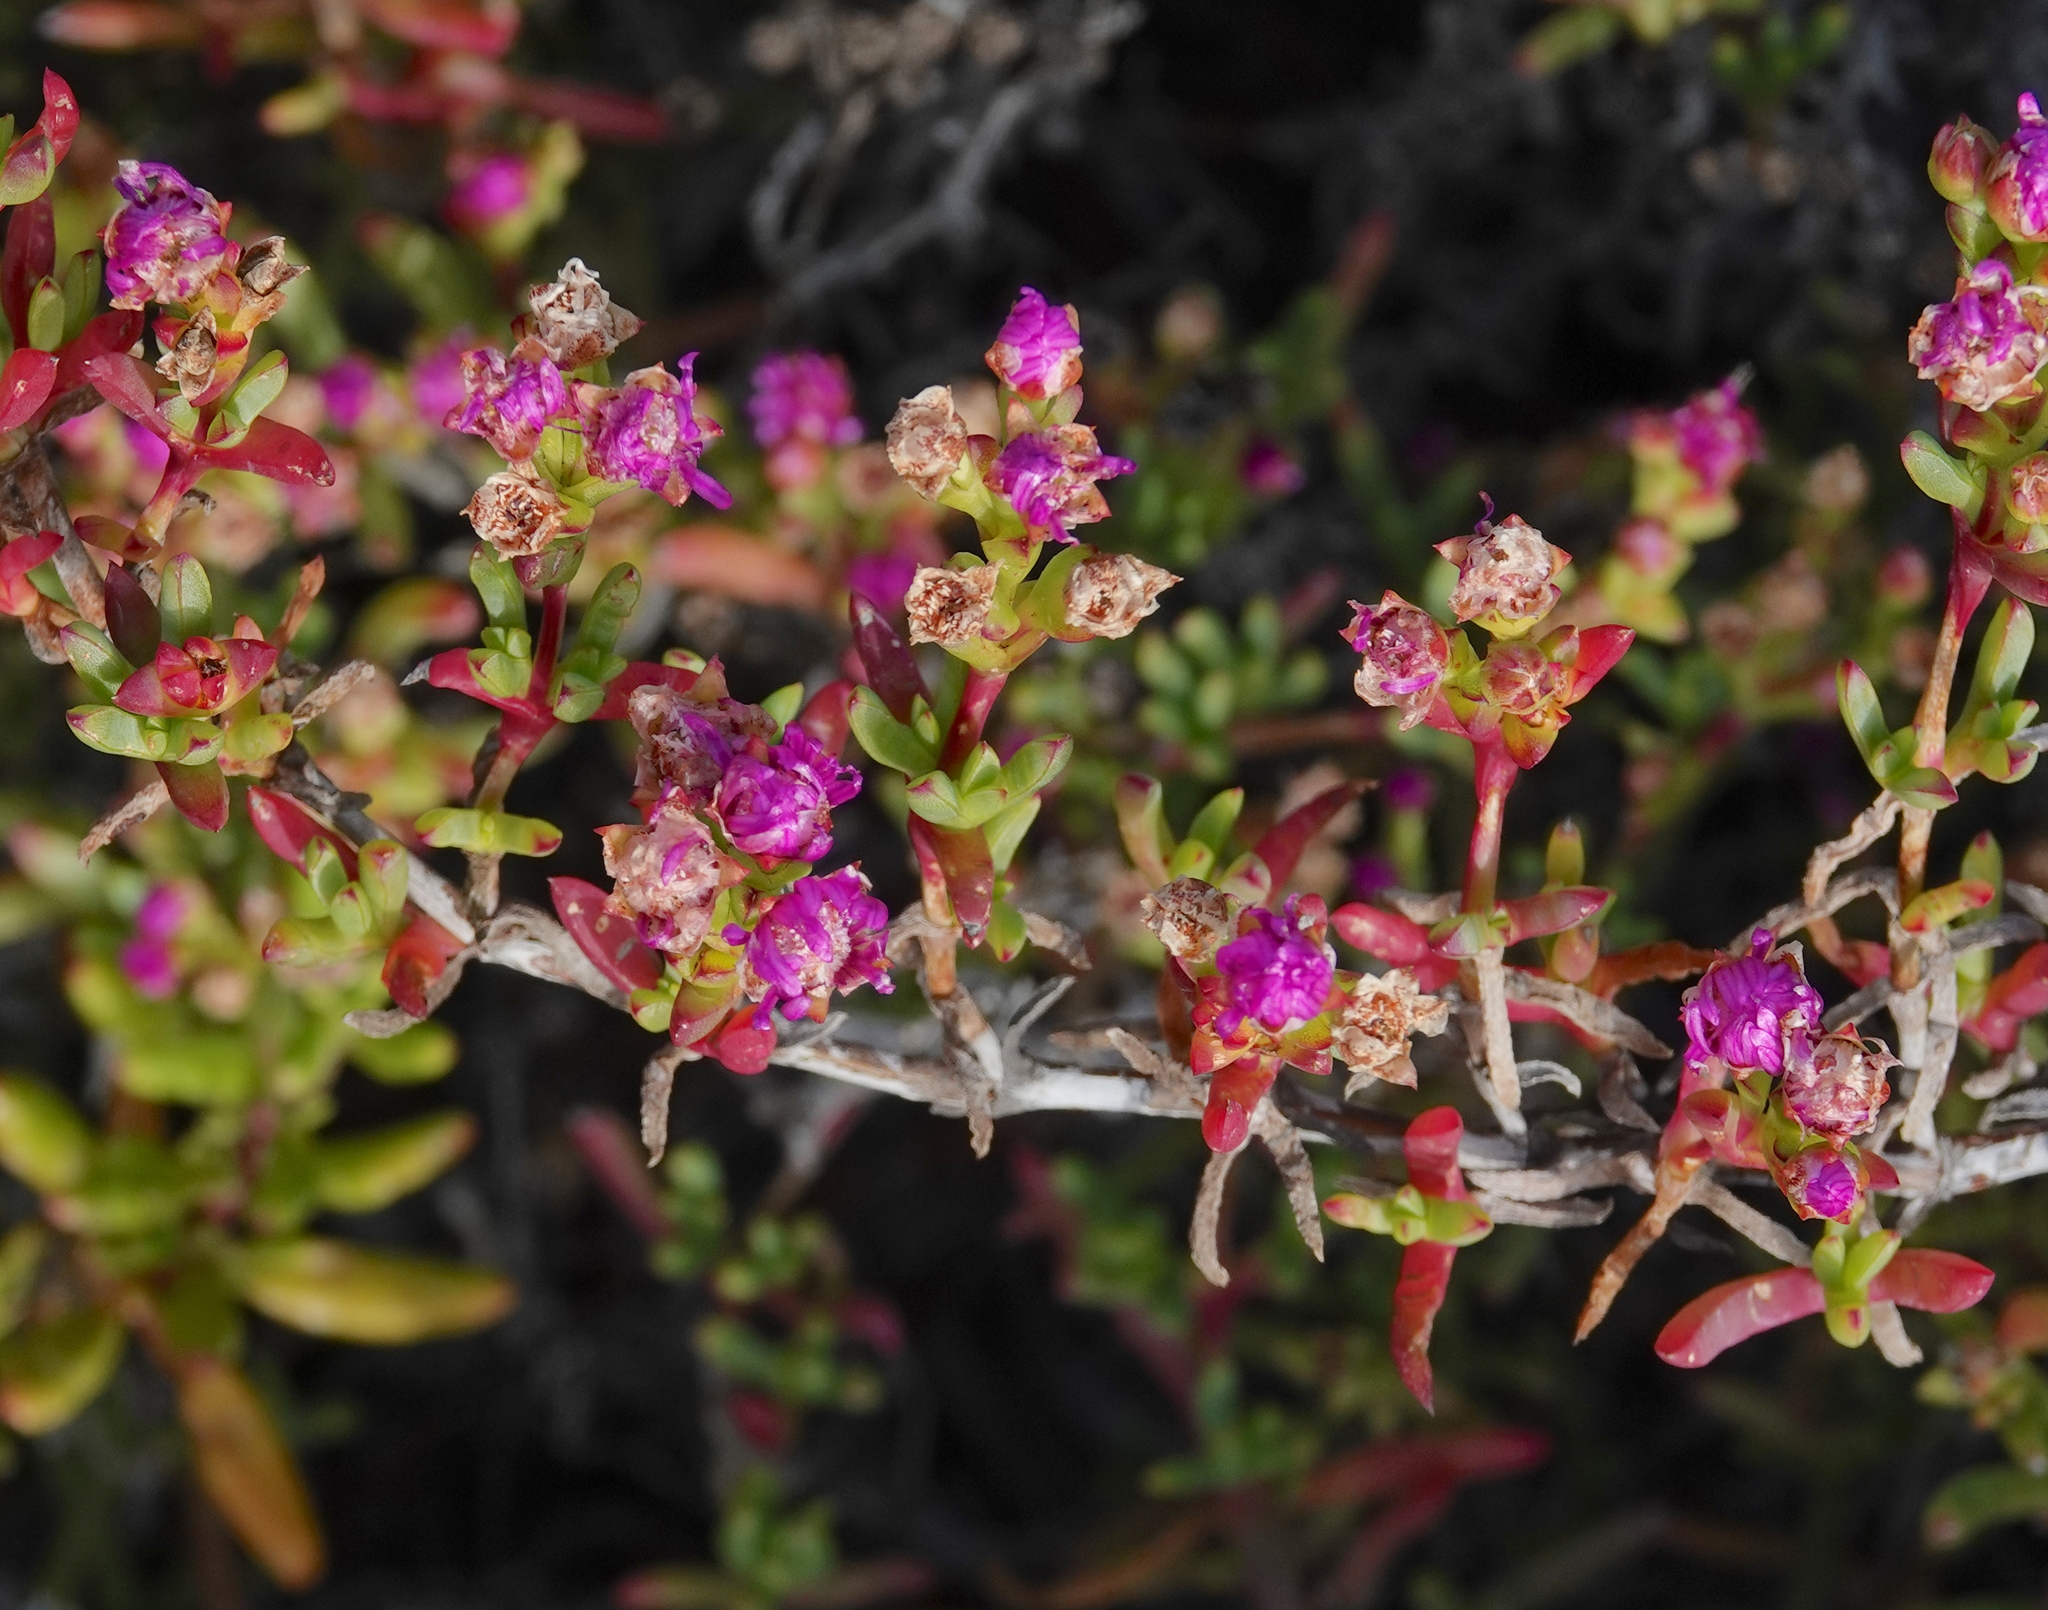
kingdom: Plantae
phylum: Tracheophyta
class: Magnoliopsida
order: Caryophyllales
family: Aizoaceae
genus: Ruschia
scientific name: Ruschia macowanii
